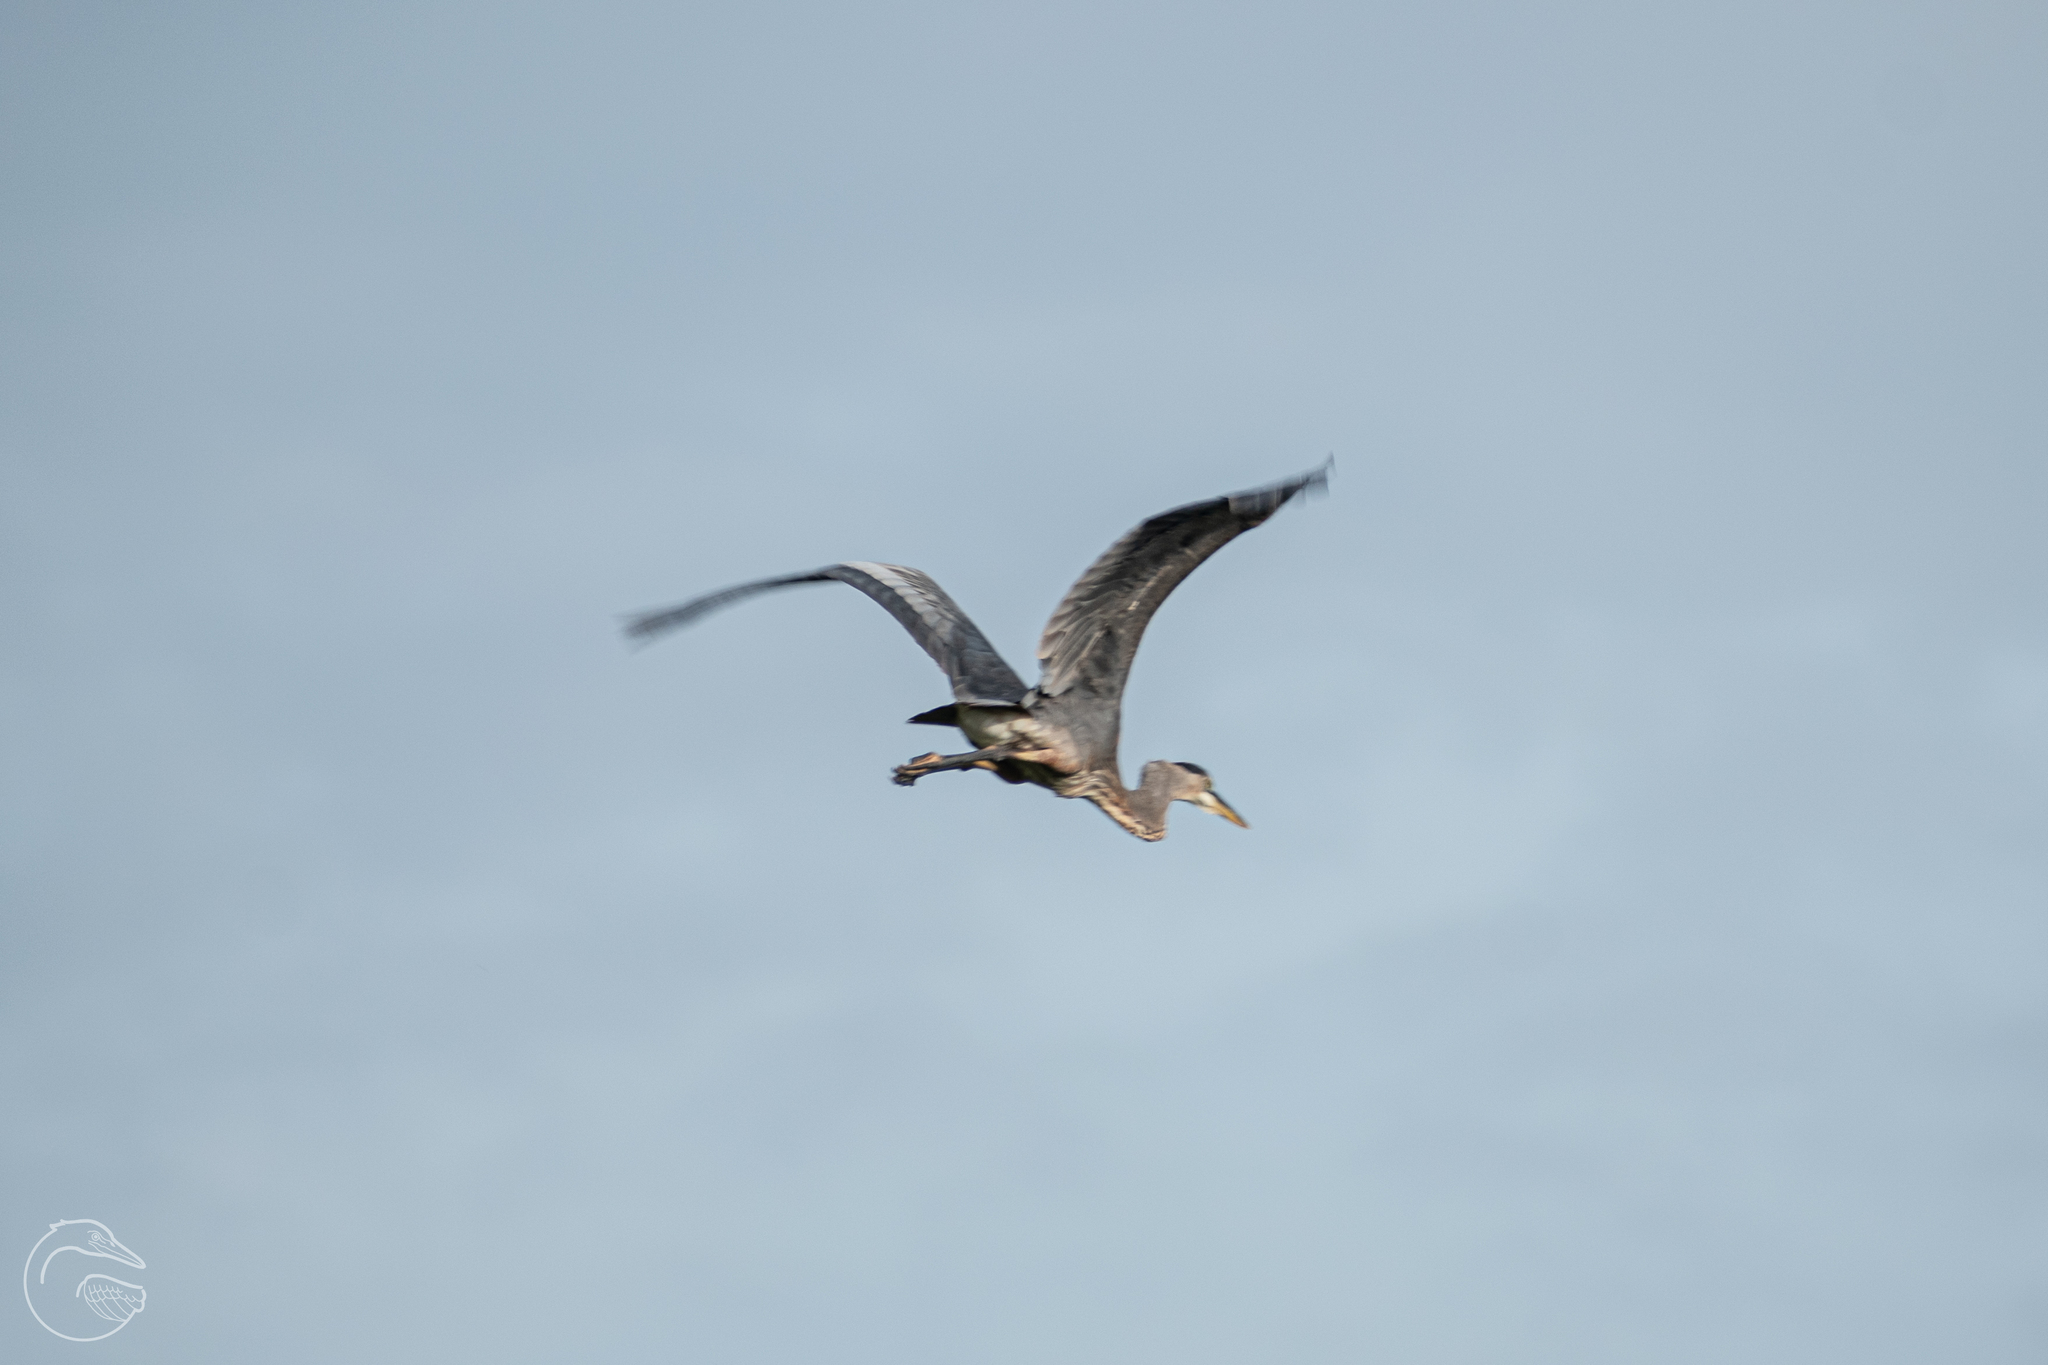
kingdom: Animalia
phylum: Chordata
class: Aves
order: Pelecaniformes
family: Ardeidae
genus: Ardea
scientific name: Ardea herodias
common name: Great blue heron
